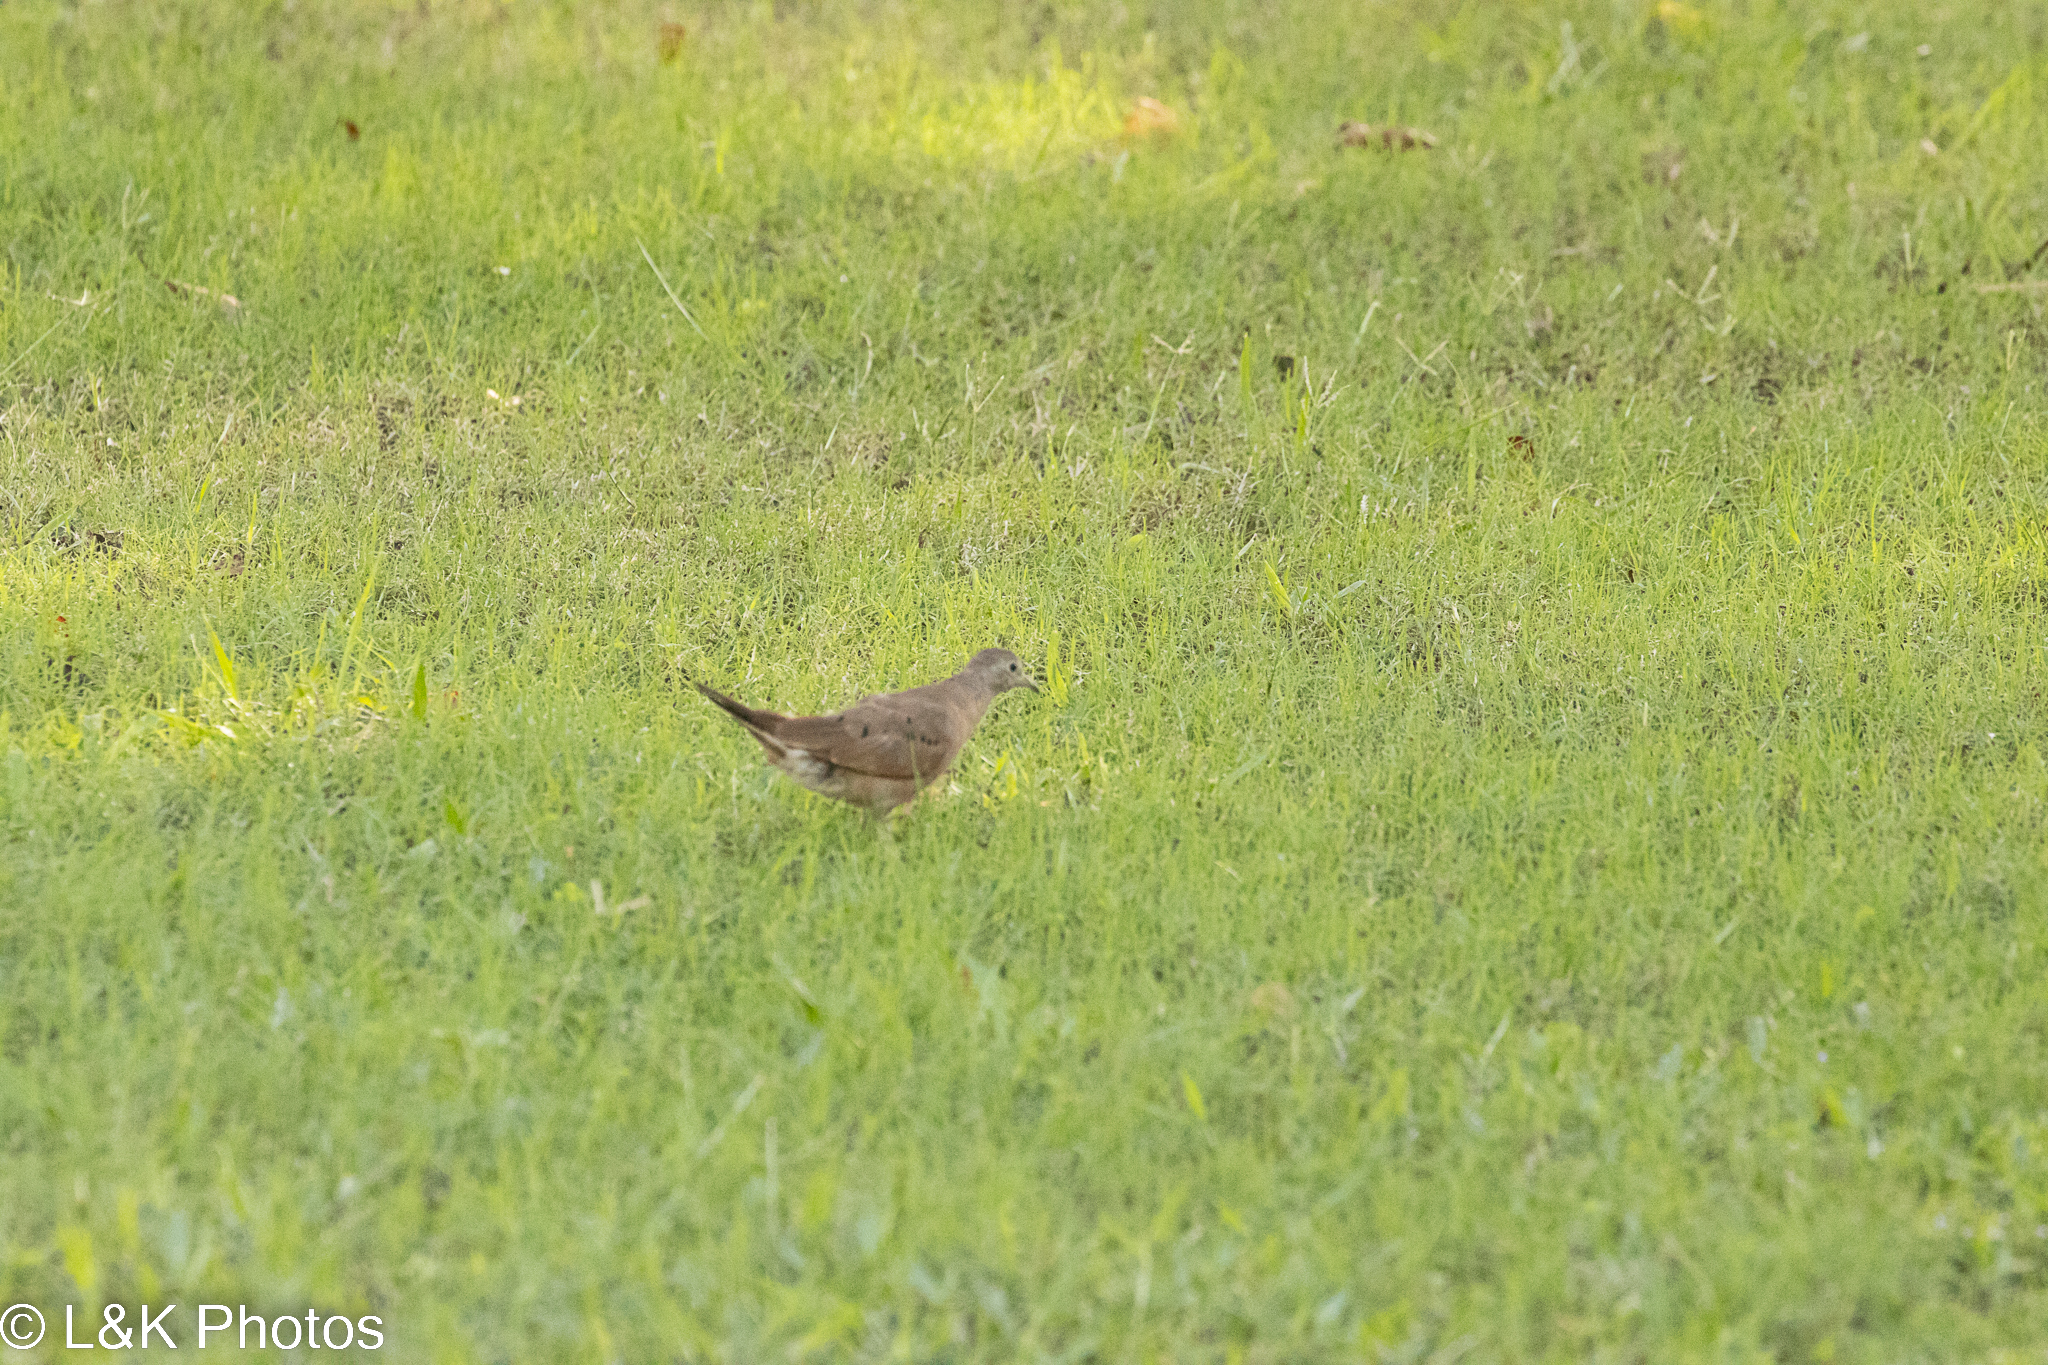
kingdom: Animalia
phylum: Chordata
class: Aves
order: Columbiformes
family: Columbidae
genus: Columbina
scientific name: Columbina talpacoti
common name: Ruddy ground dove
